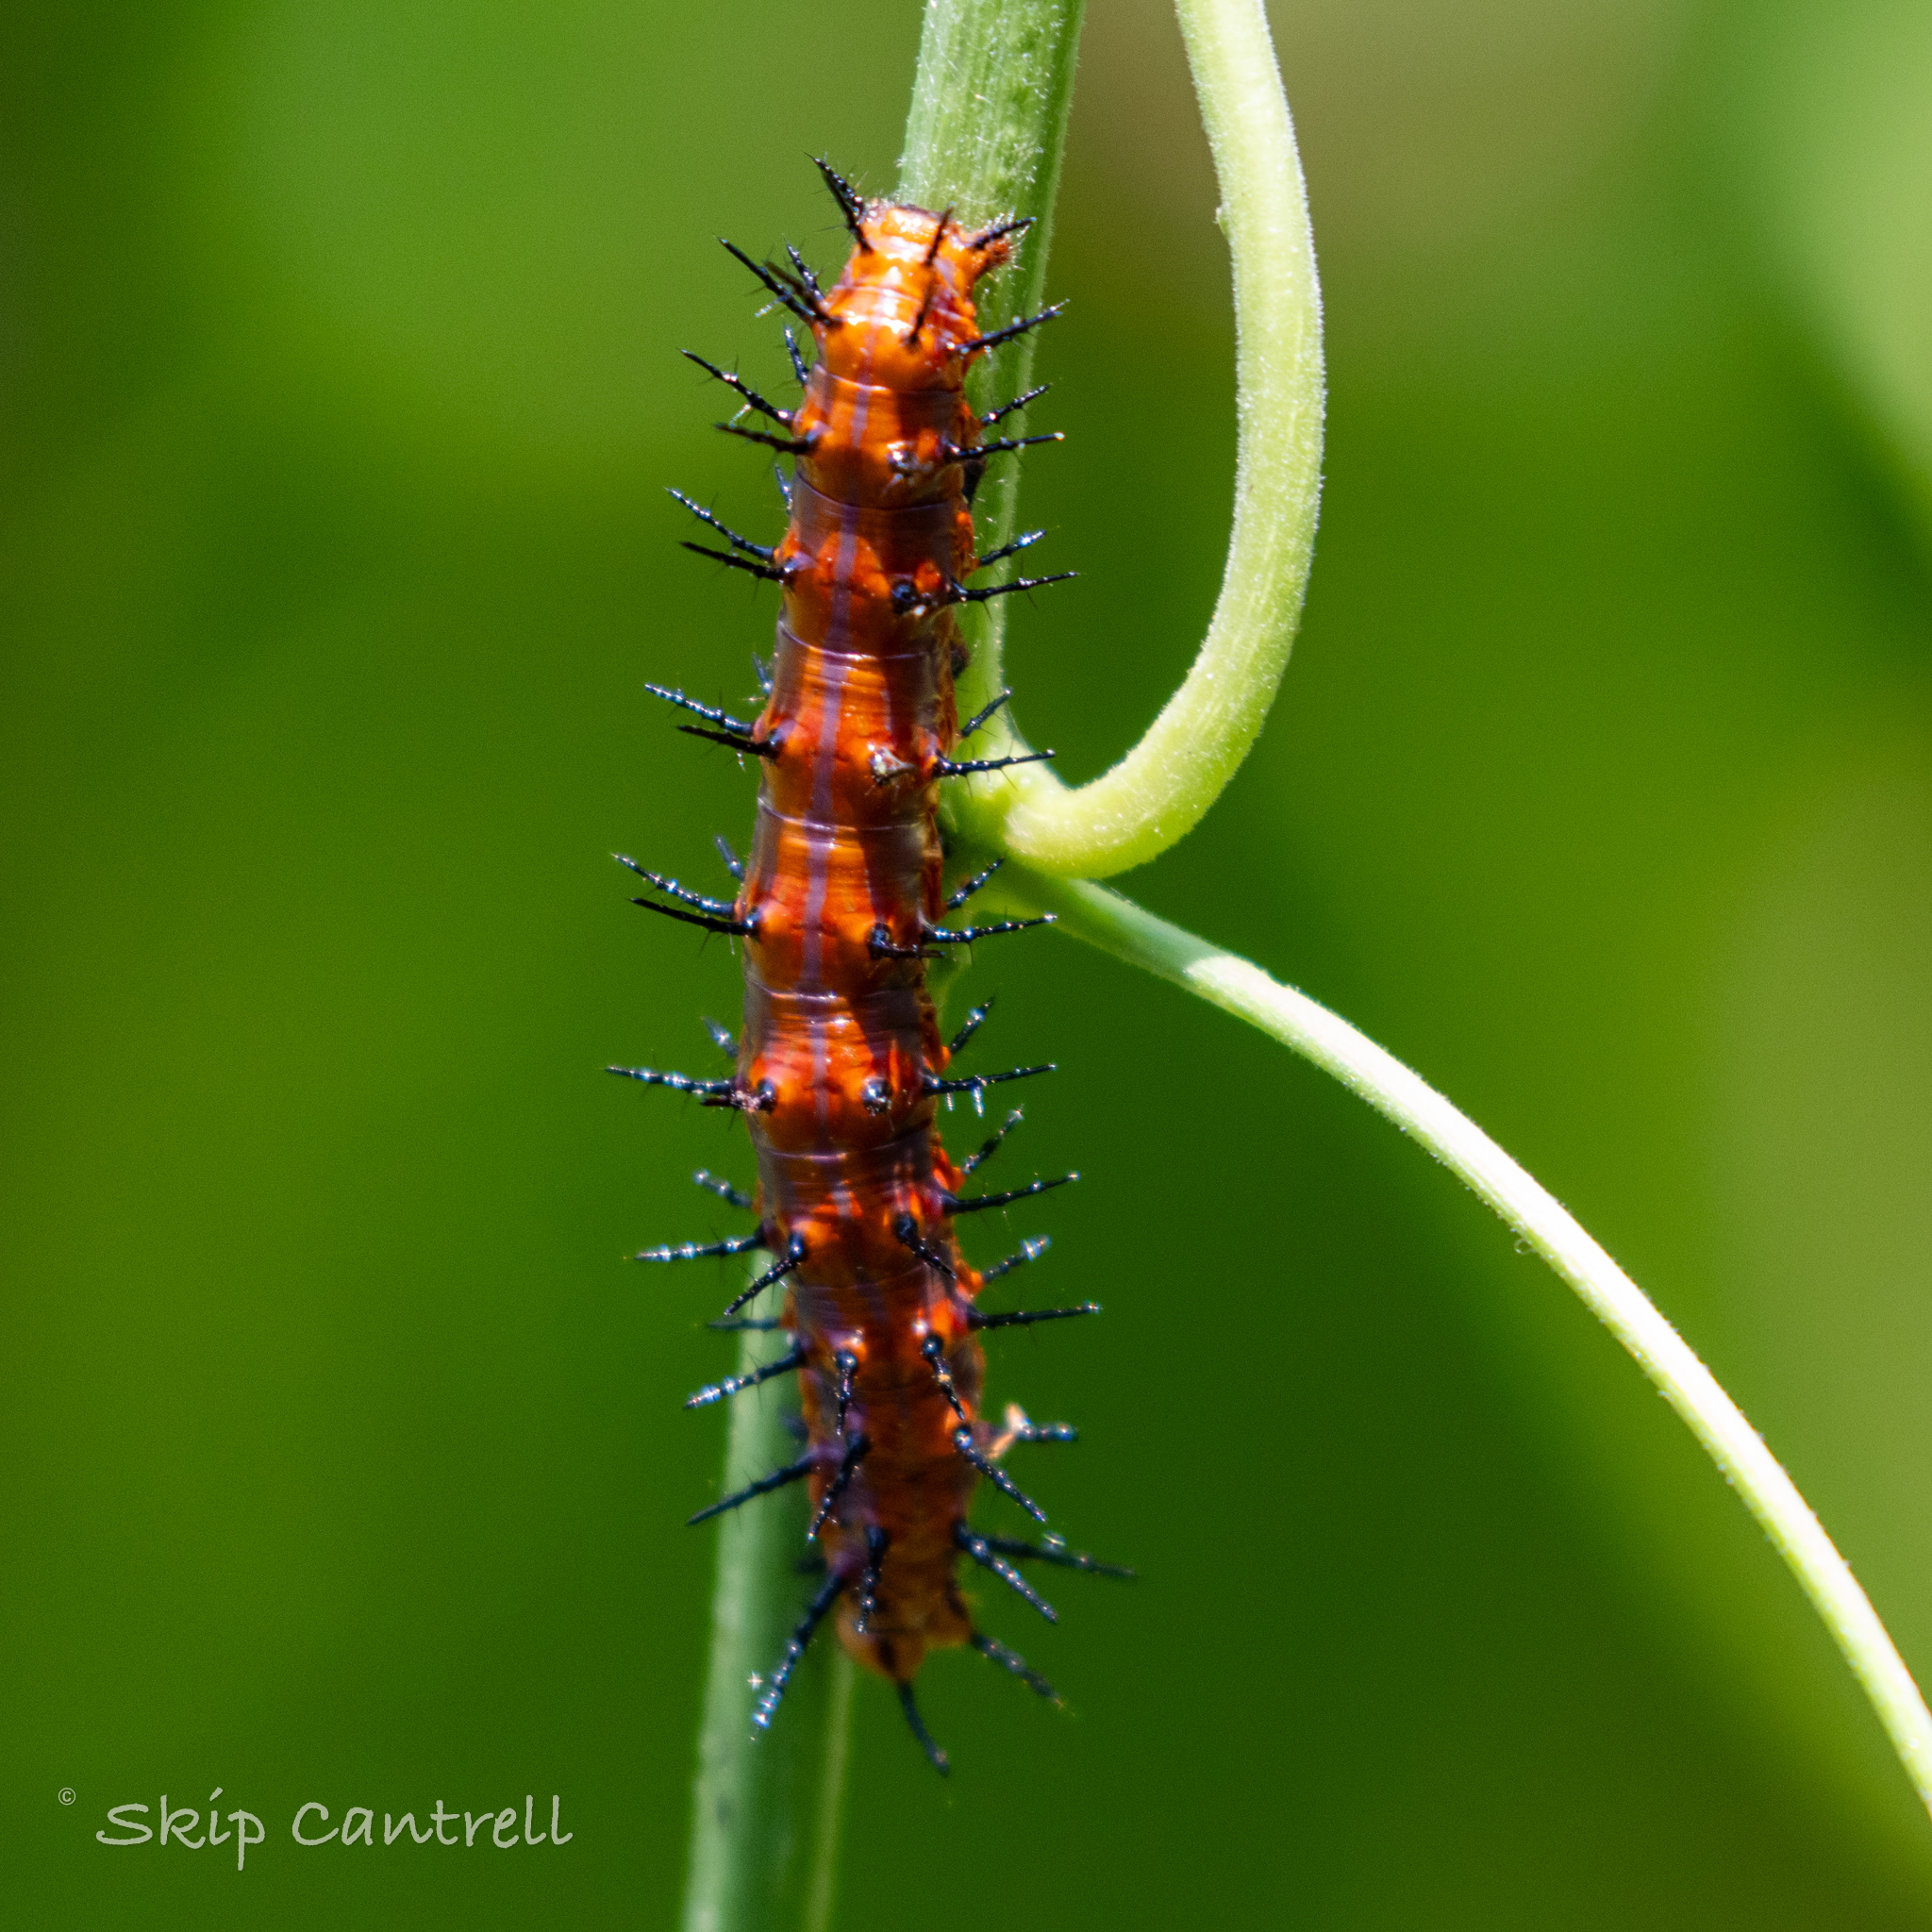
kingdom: Animalia
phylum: Arthropoda
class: Insecta
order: Lepidoptera
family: Nymphalidae
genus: Dione
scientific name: Dione vanillae
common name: Gulf fritillary
